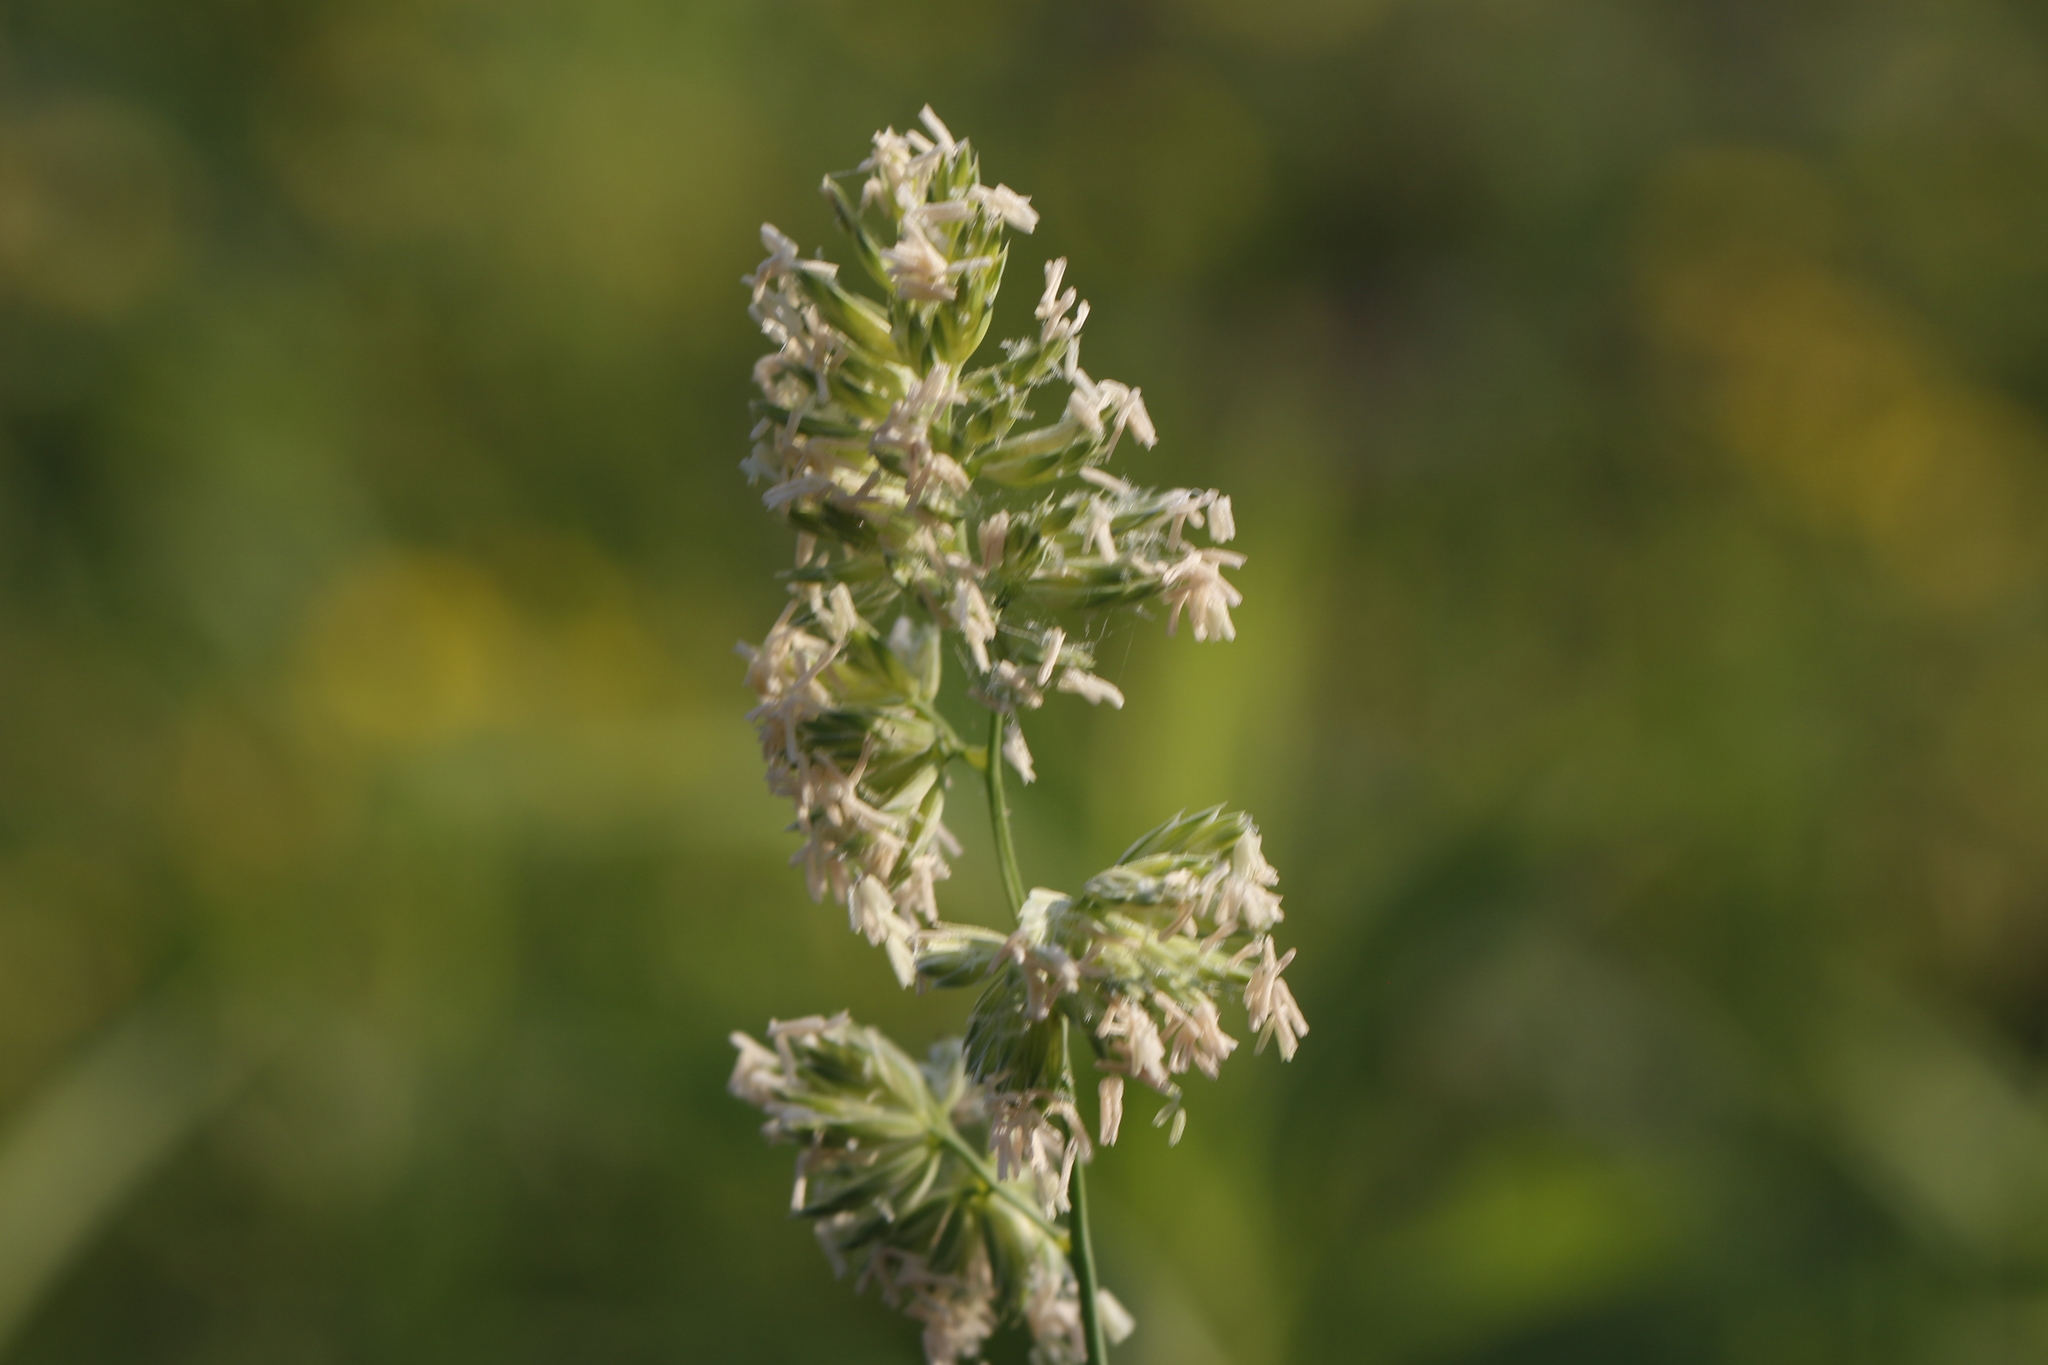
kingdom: Plantae
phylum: Tracheophyta
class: Liliopsida
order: Poales
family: Poaceae
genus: Dactylis
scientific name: Dactylis glomerata
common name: Orchardgrass
